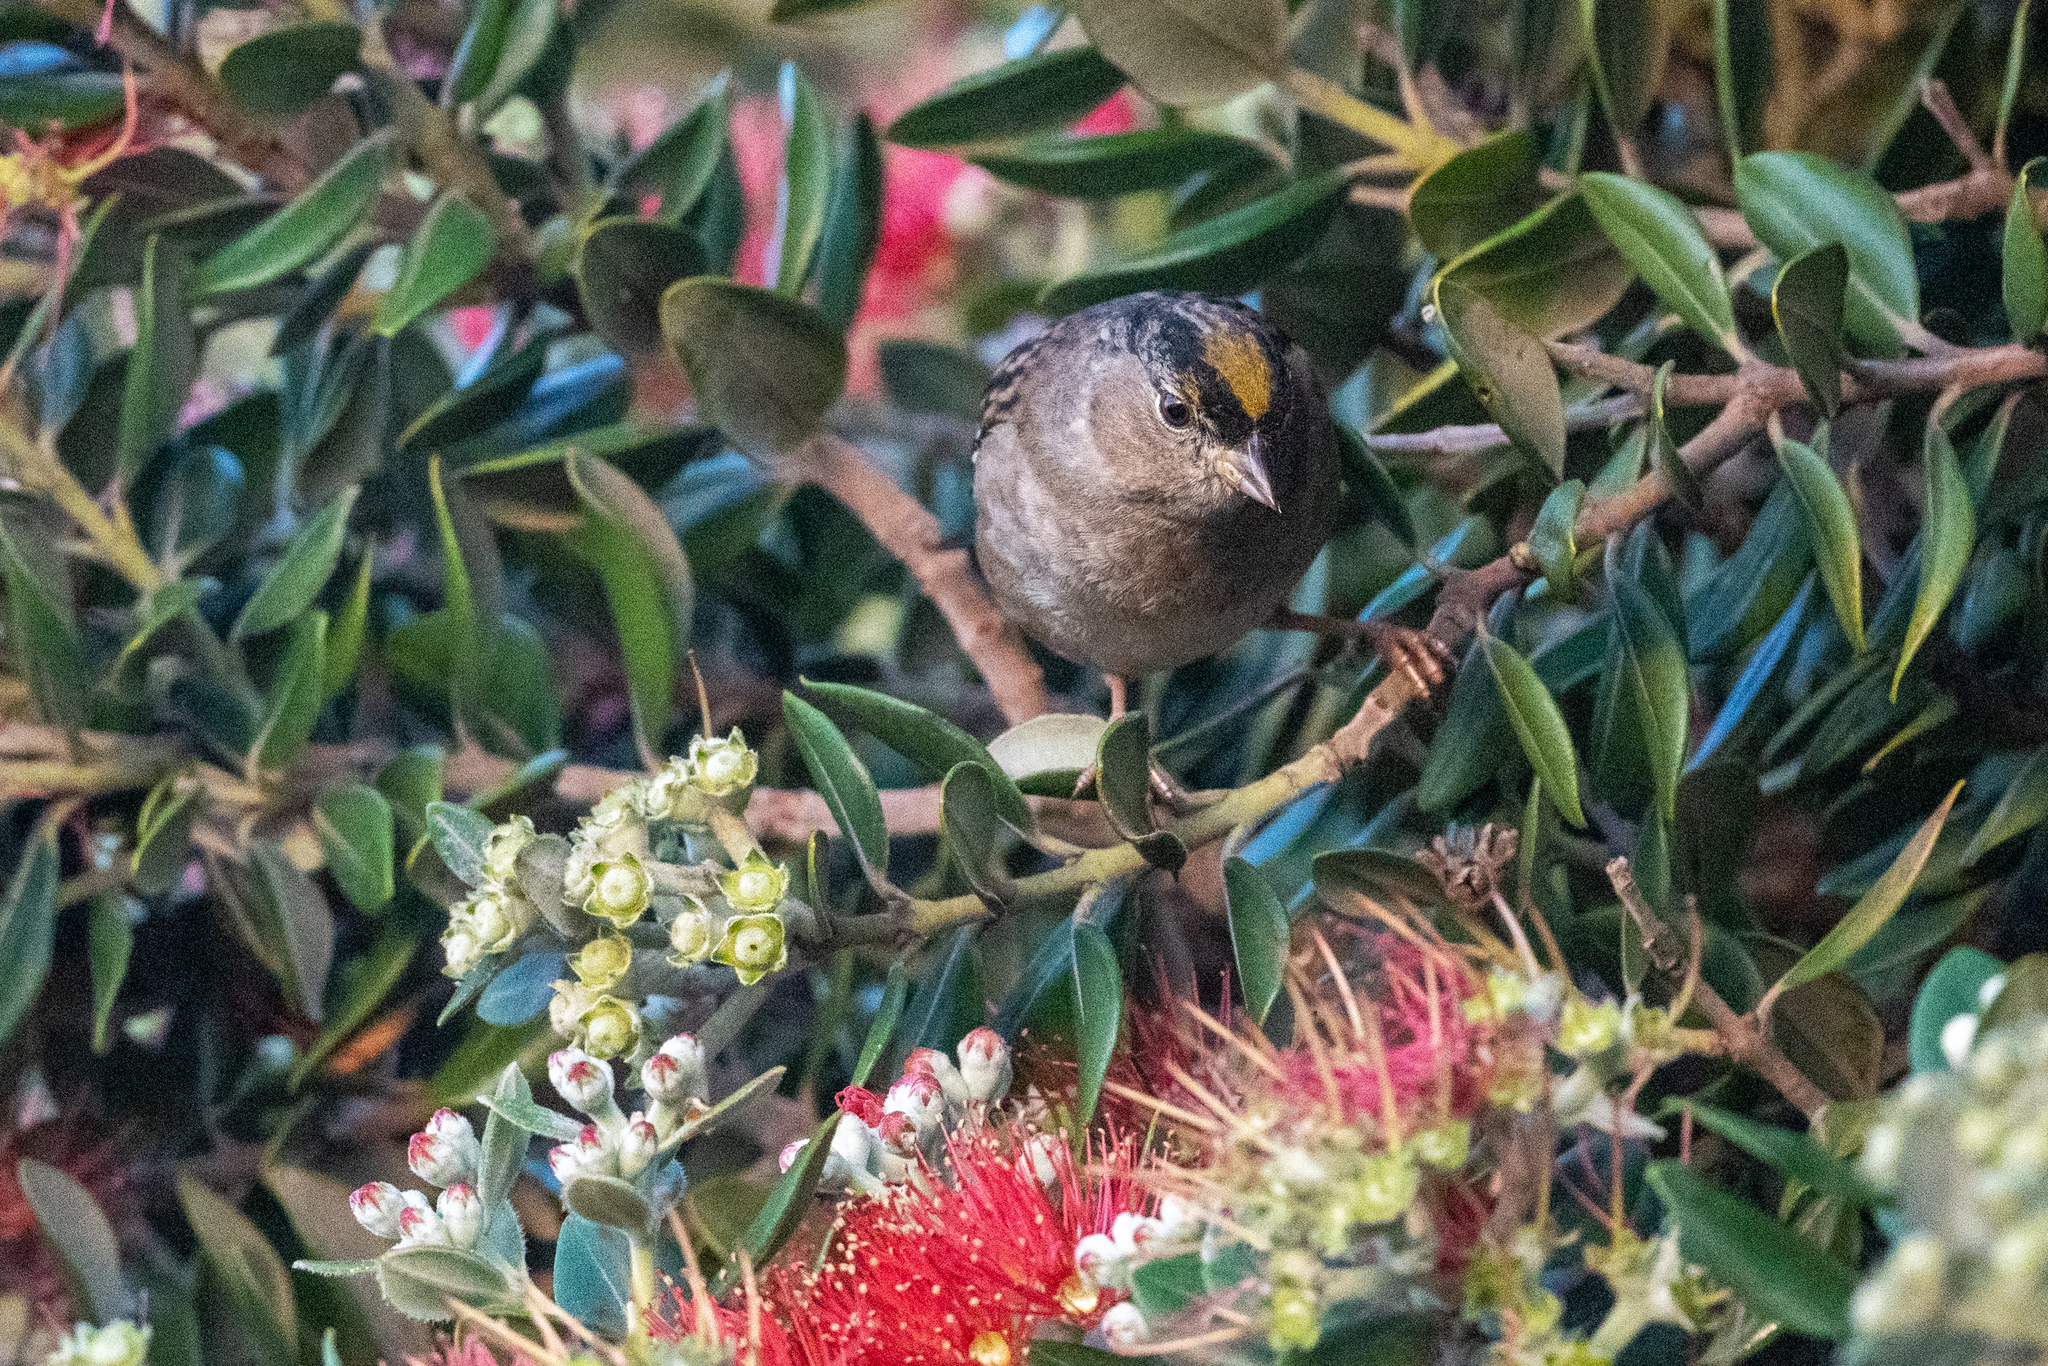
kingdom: Animalia
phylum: Chordata
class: Aves
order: Passeriformes
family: Passerellidae
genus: Zonotrichia
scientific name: Zonotrichia atricapilla
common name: Golden-crowned sparrow
